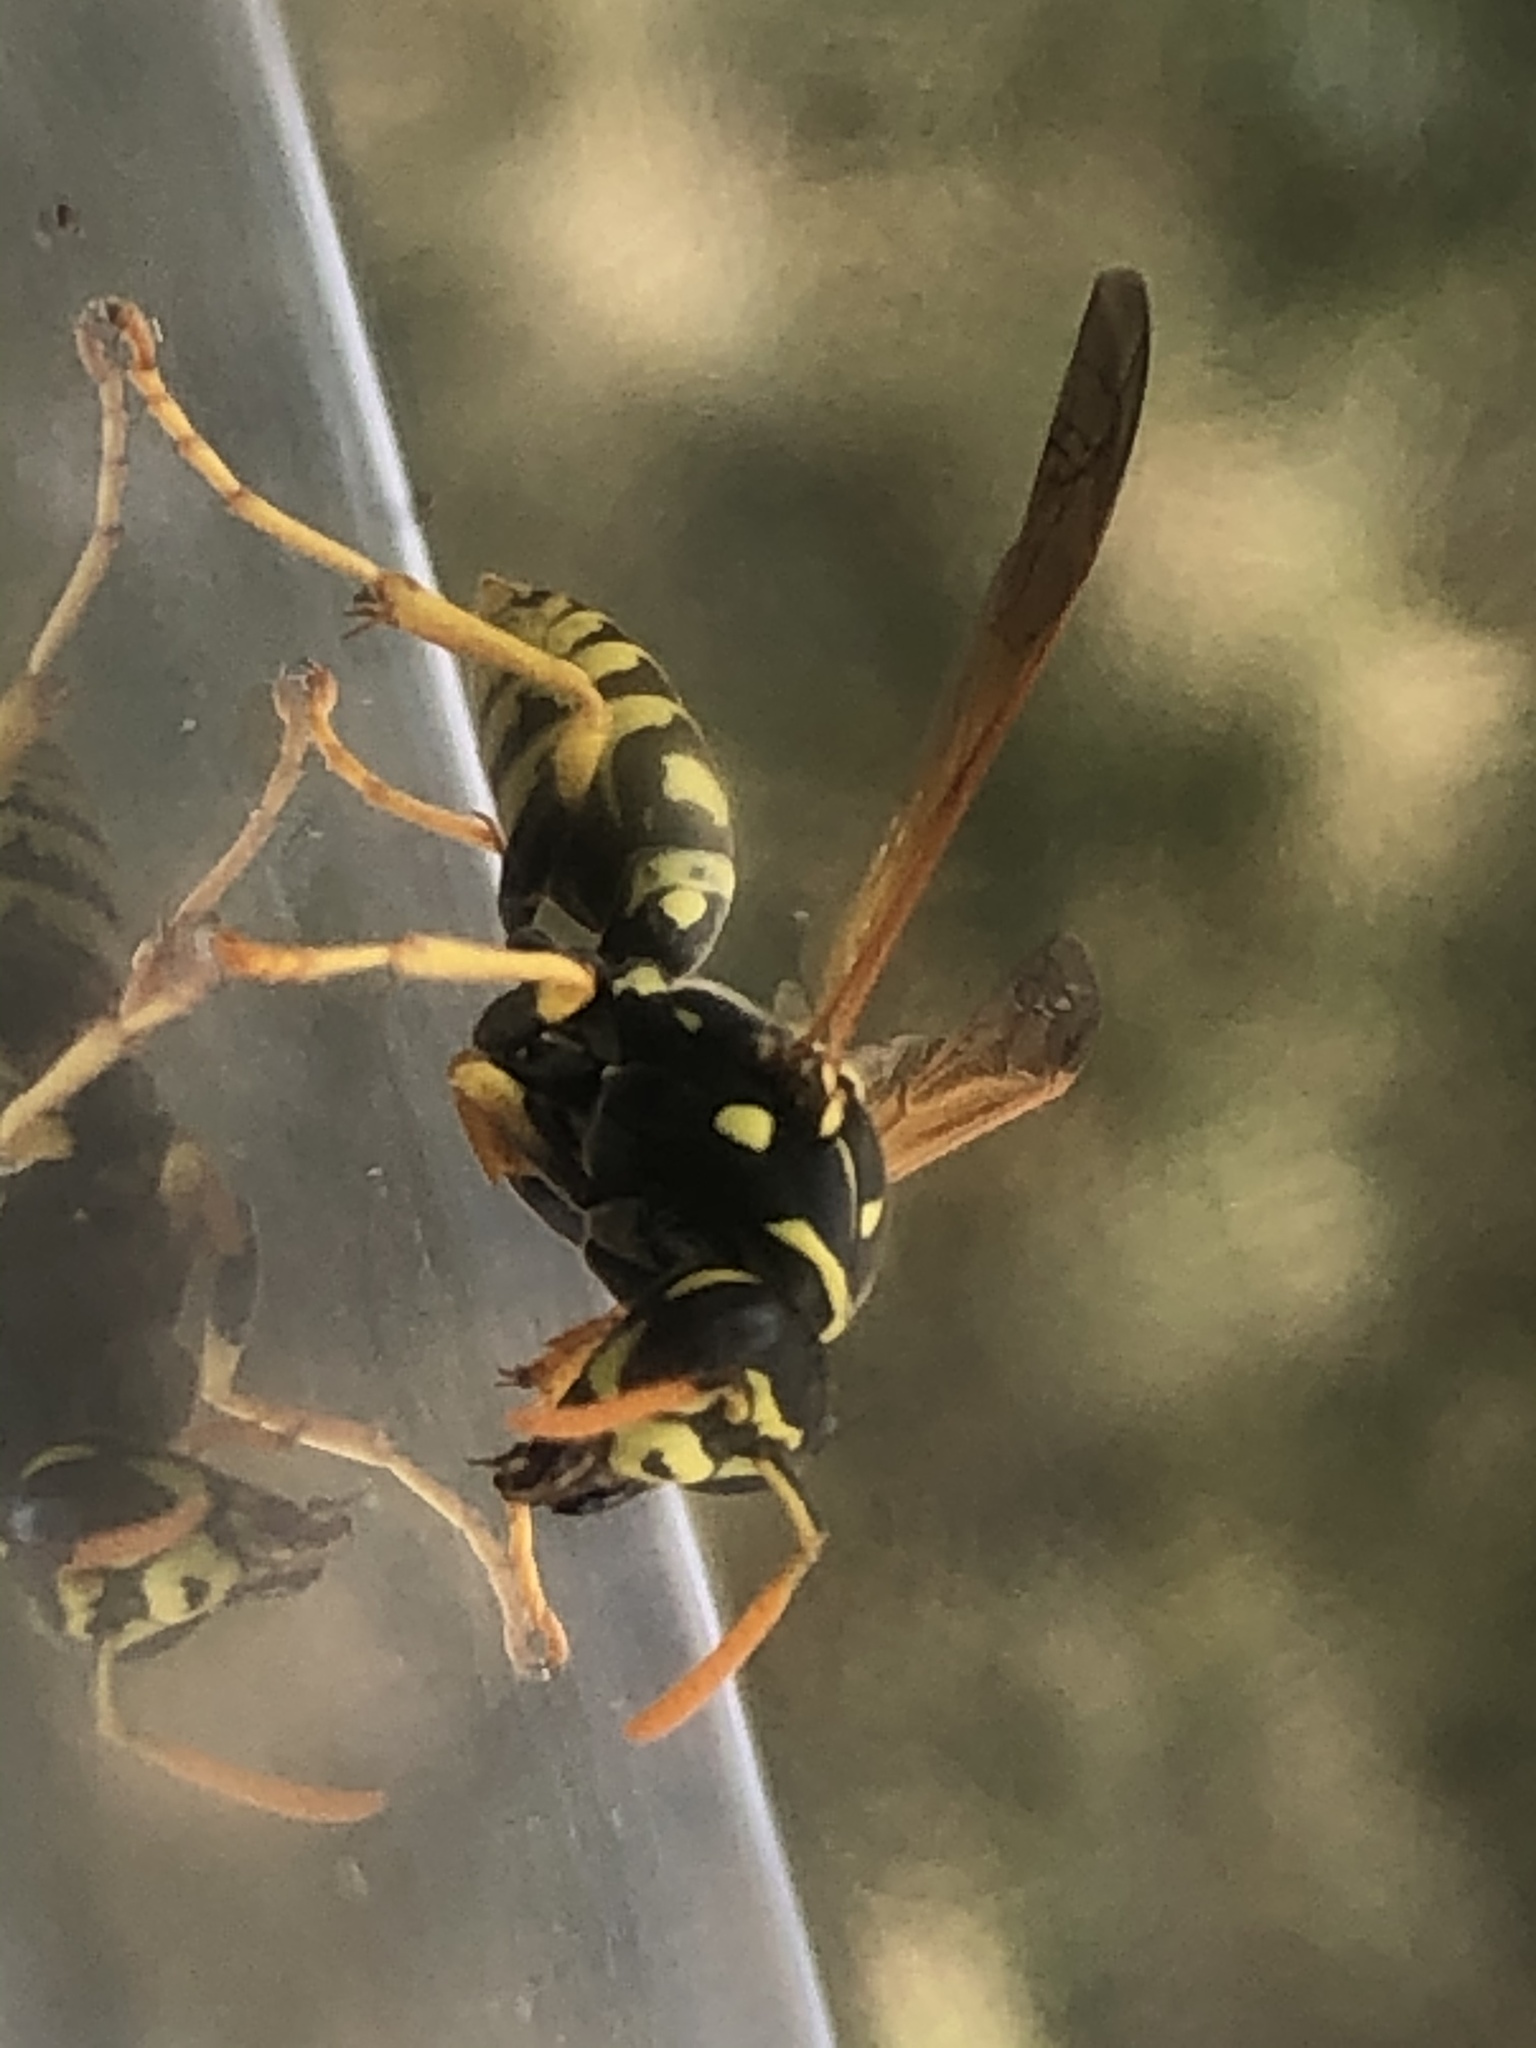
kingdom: Animalia
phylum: Arthropoda
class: Insecta
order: Hymenoptera
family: Eumenidae
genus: Polistes
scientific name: Polistes dominula
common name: Paper wasp
